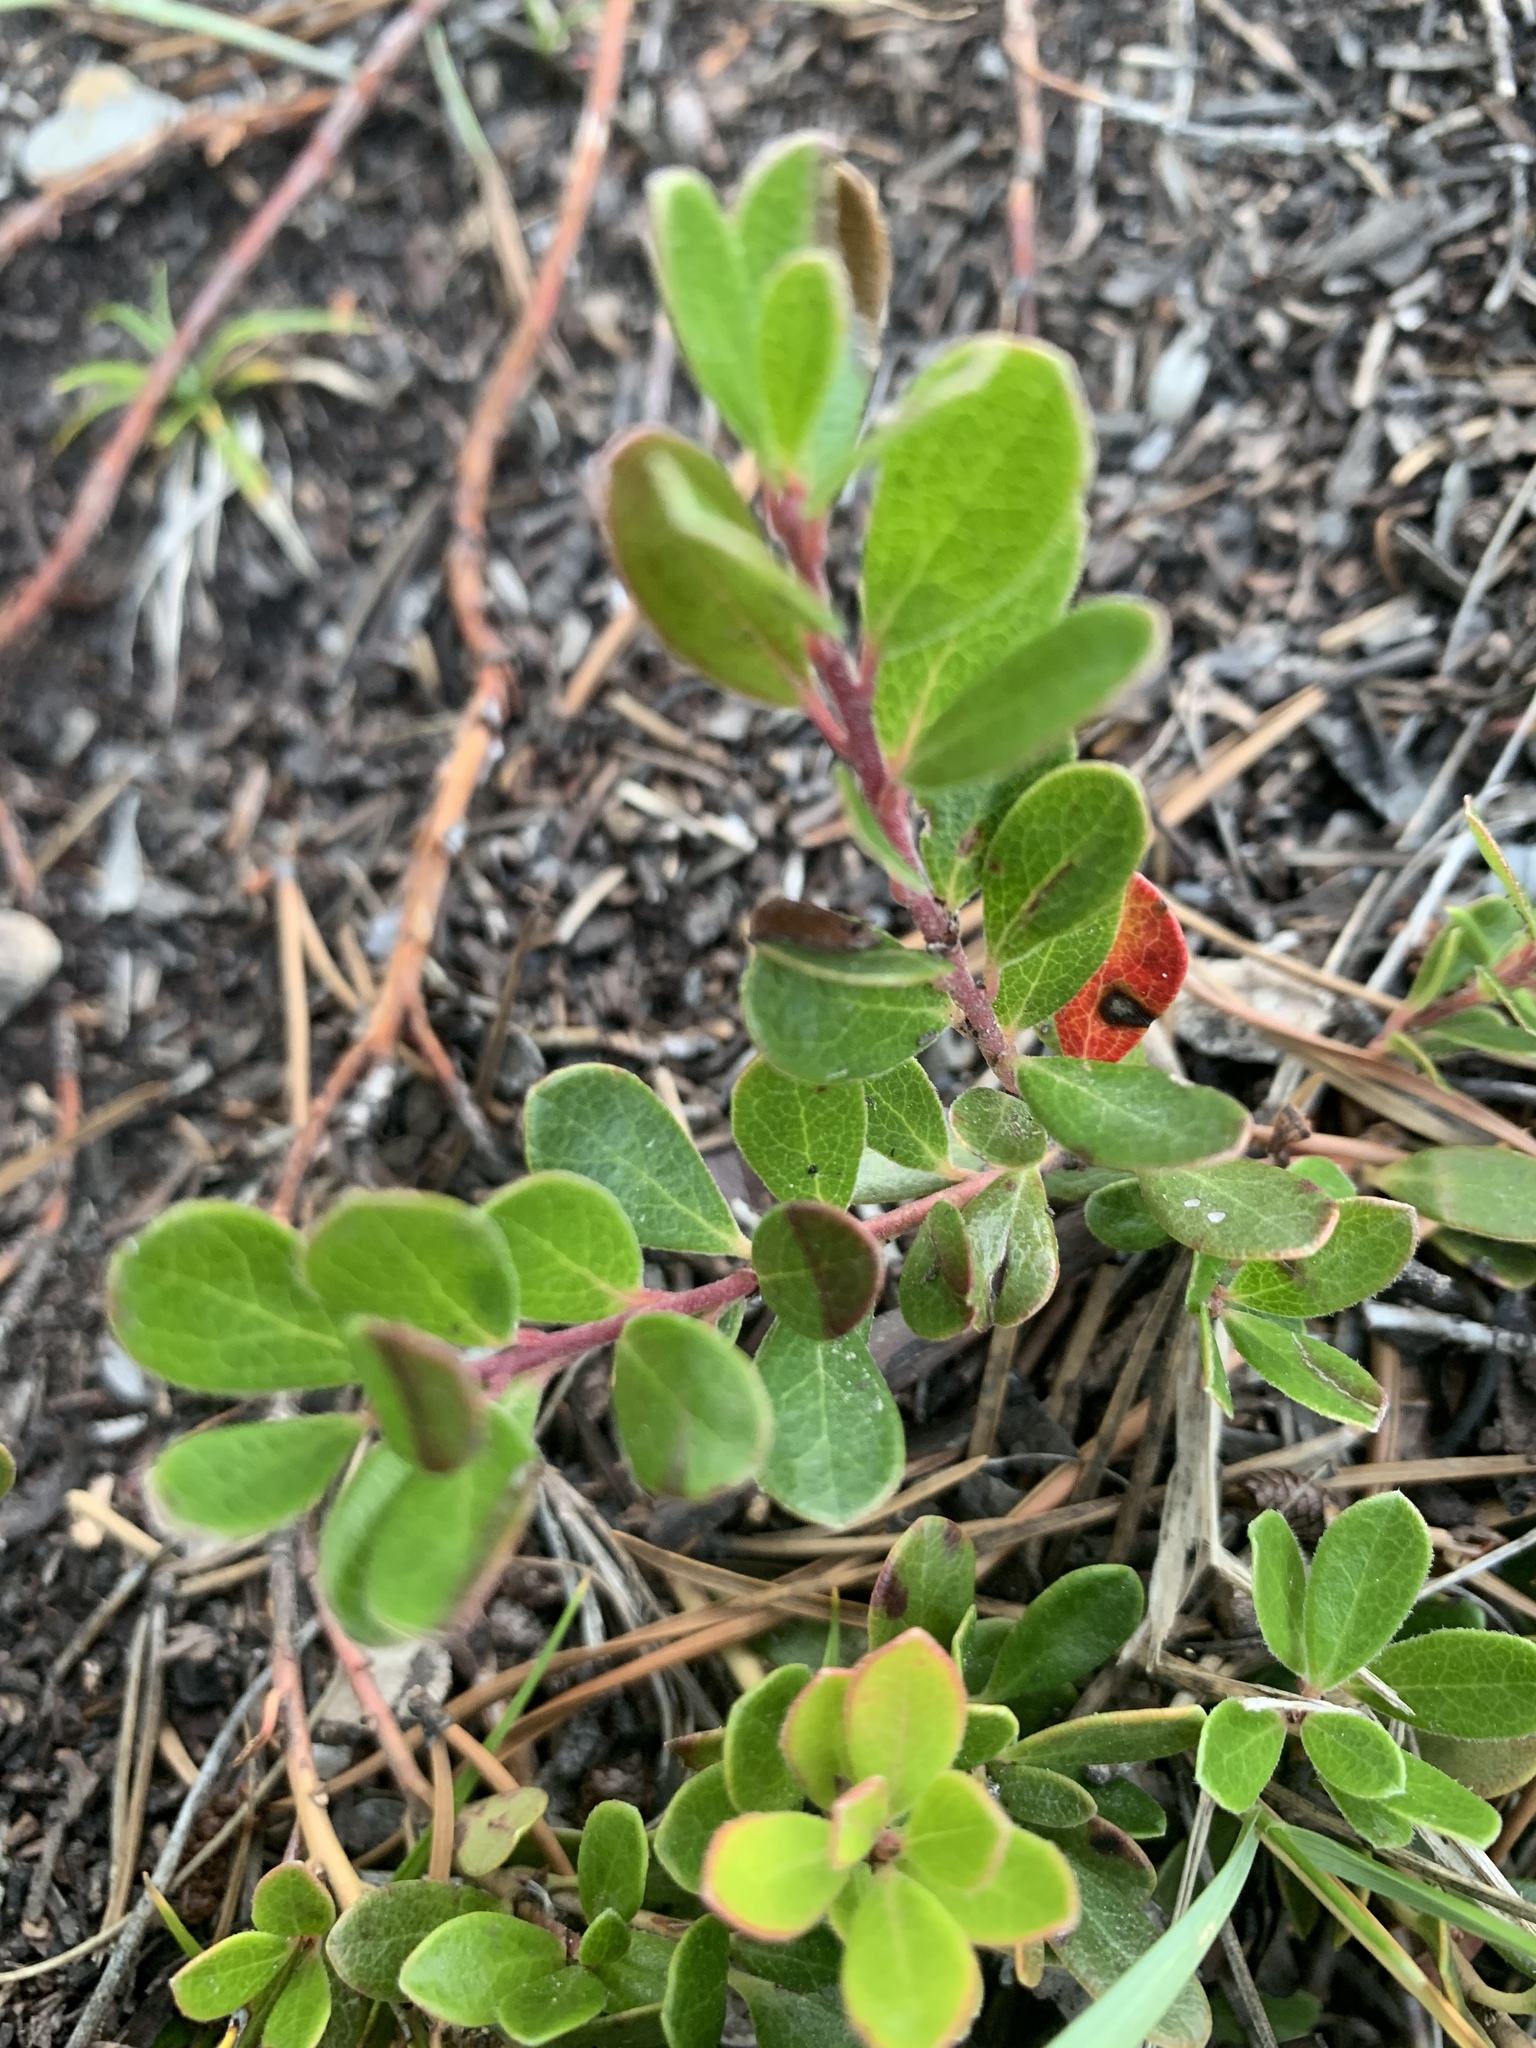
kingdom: Plantae
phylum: Tracheophyta
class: Magnoliopsida
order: Ericales
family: Ericaceae
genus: Arctostaphylos
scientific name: Arctostaphylos uva-ursi
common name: Bearberry
